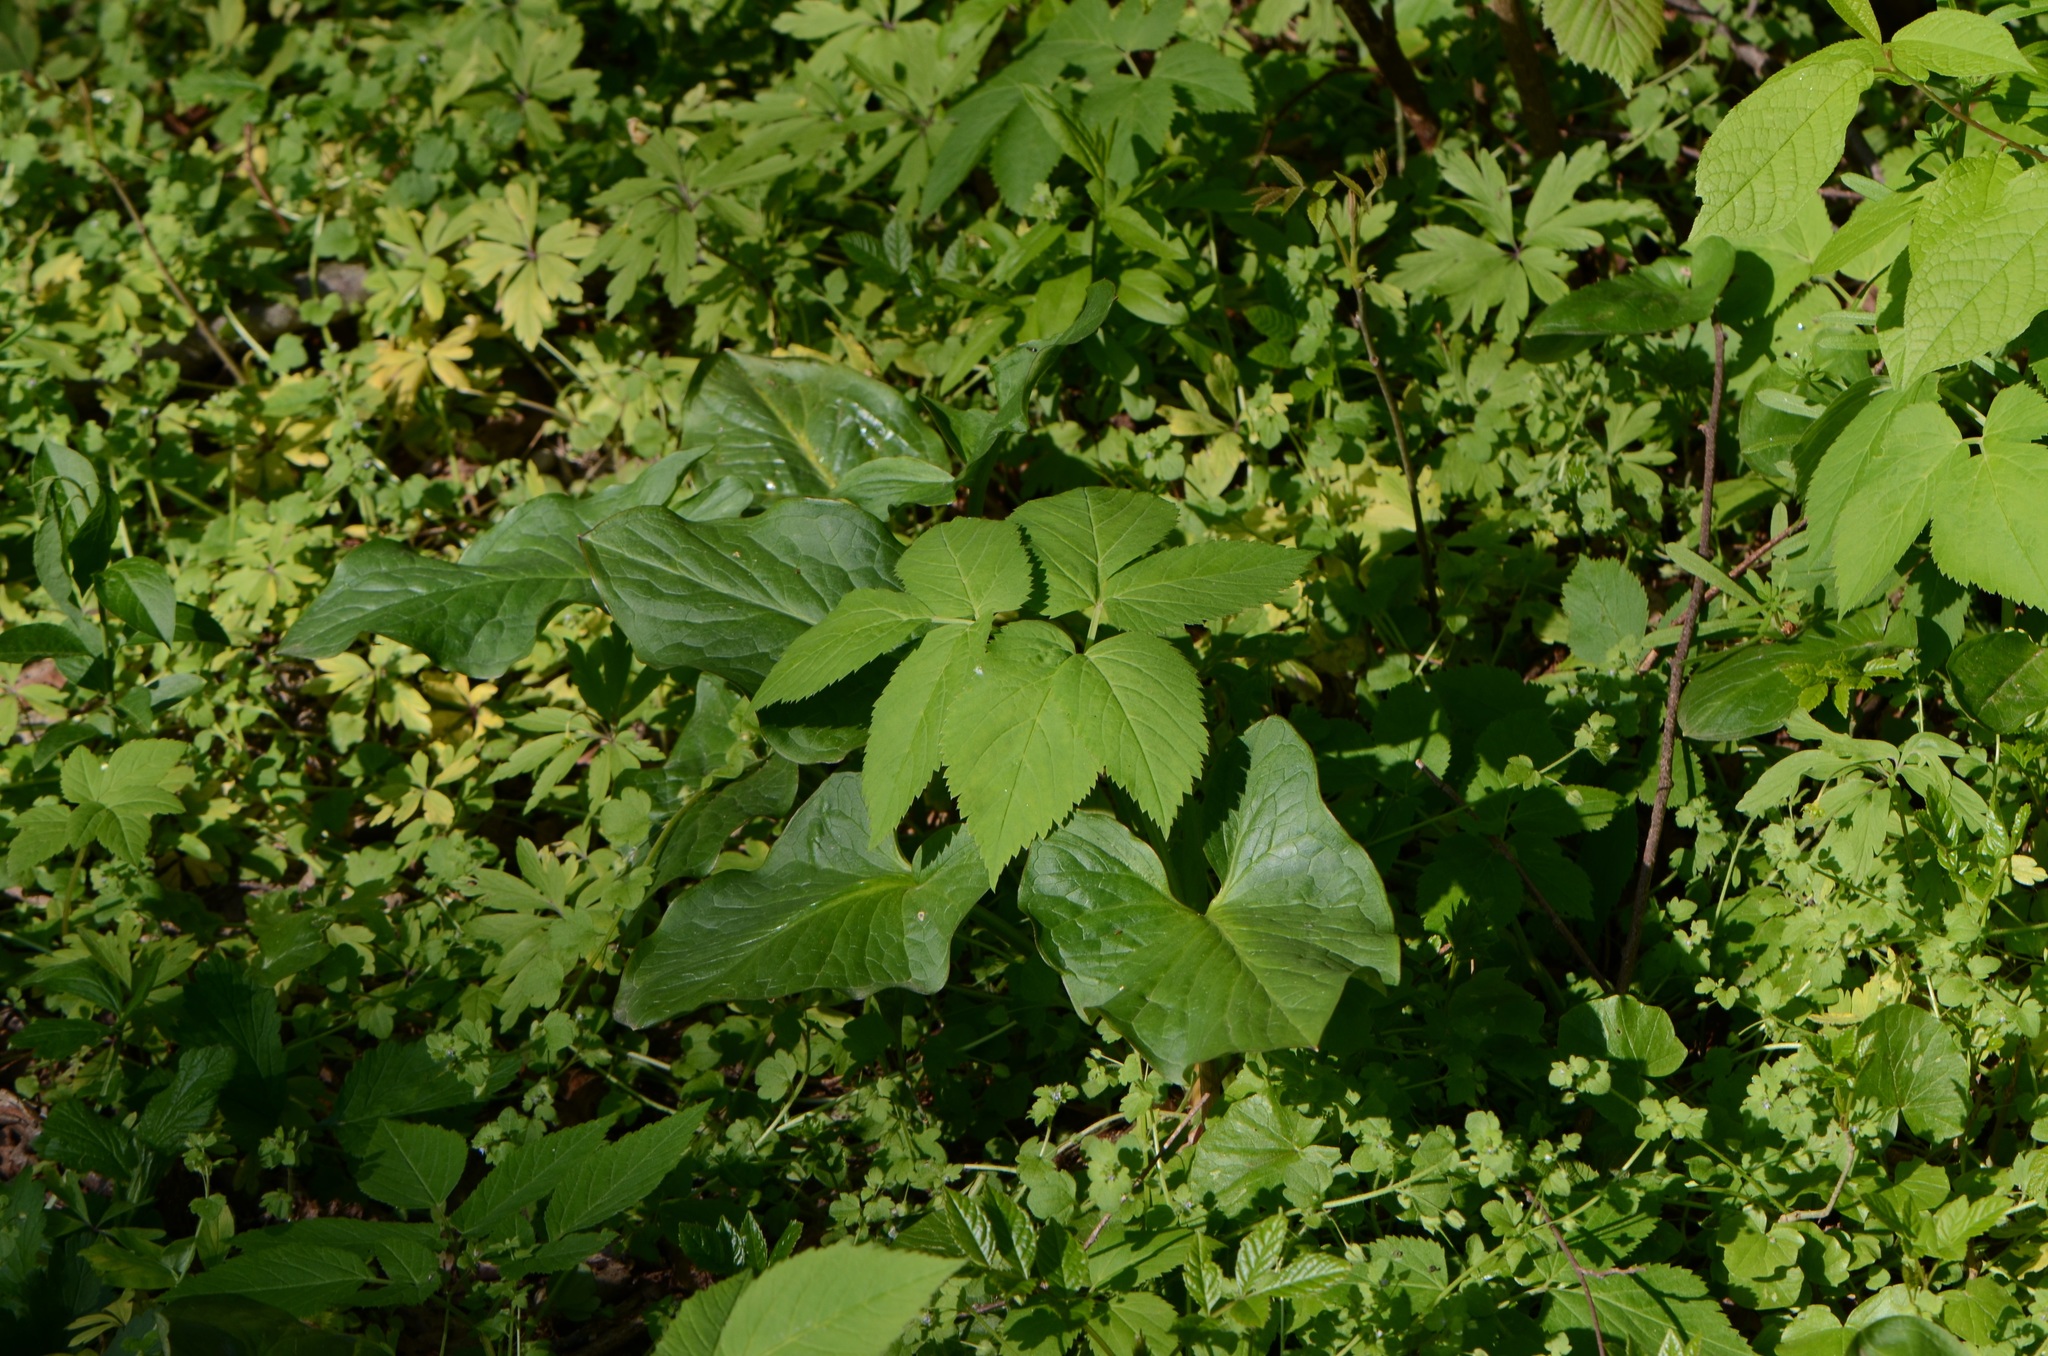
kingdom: Plantae
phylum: Tracheophyta
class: Liliopsida
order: Alismatales
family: Araceae
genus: Arum
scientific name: Arum cylindraceum
